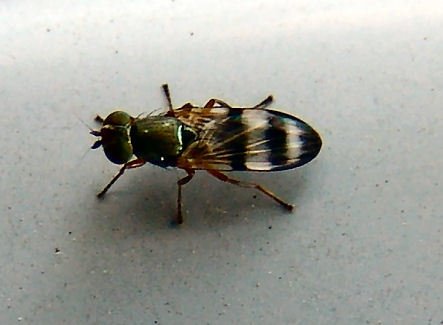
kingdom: Animalia
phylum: Arthropoda
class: Insecta
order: Diptera
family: Ulidiidae
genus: Chaetopsis
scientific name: Chaetopsis massyla
